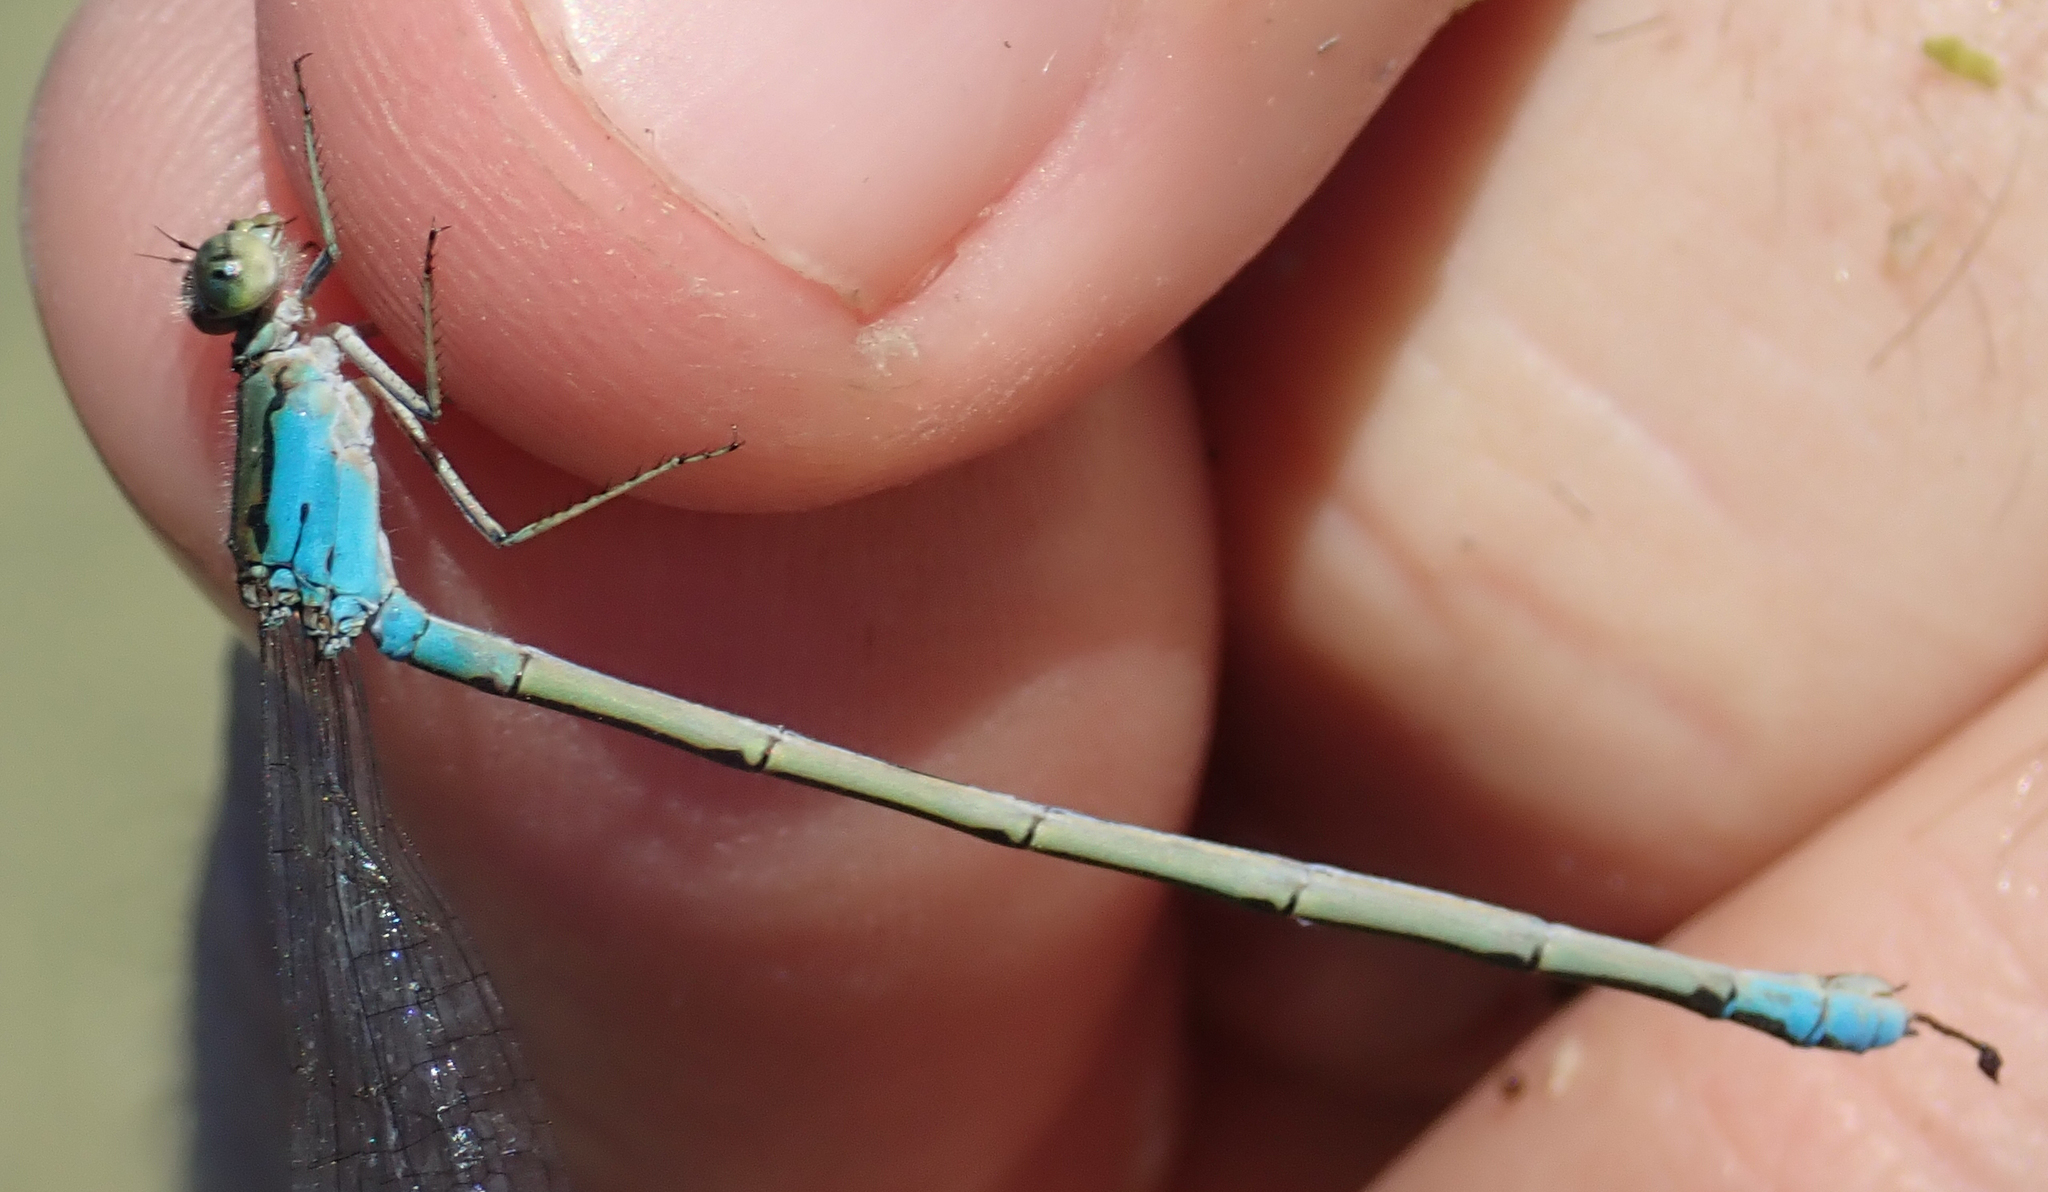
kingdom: Animalia
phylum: Arthropoda
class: Insecta
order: Odonata
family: Coenagrionidae
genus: Pseudagrion
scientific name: Pseudagrion coeleste
